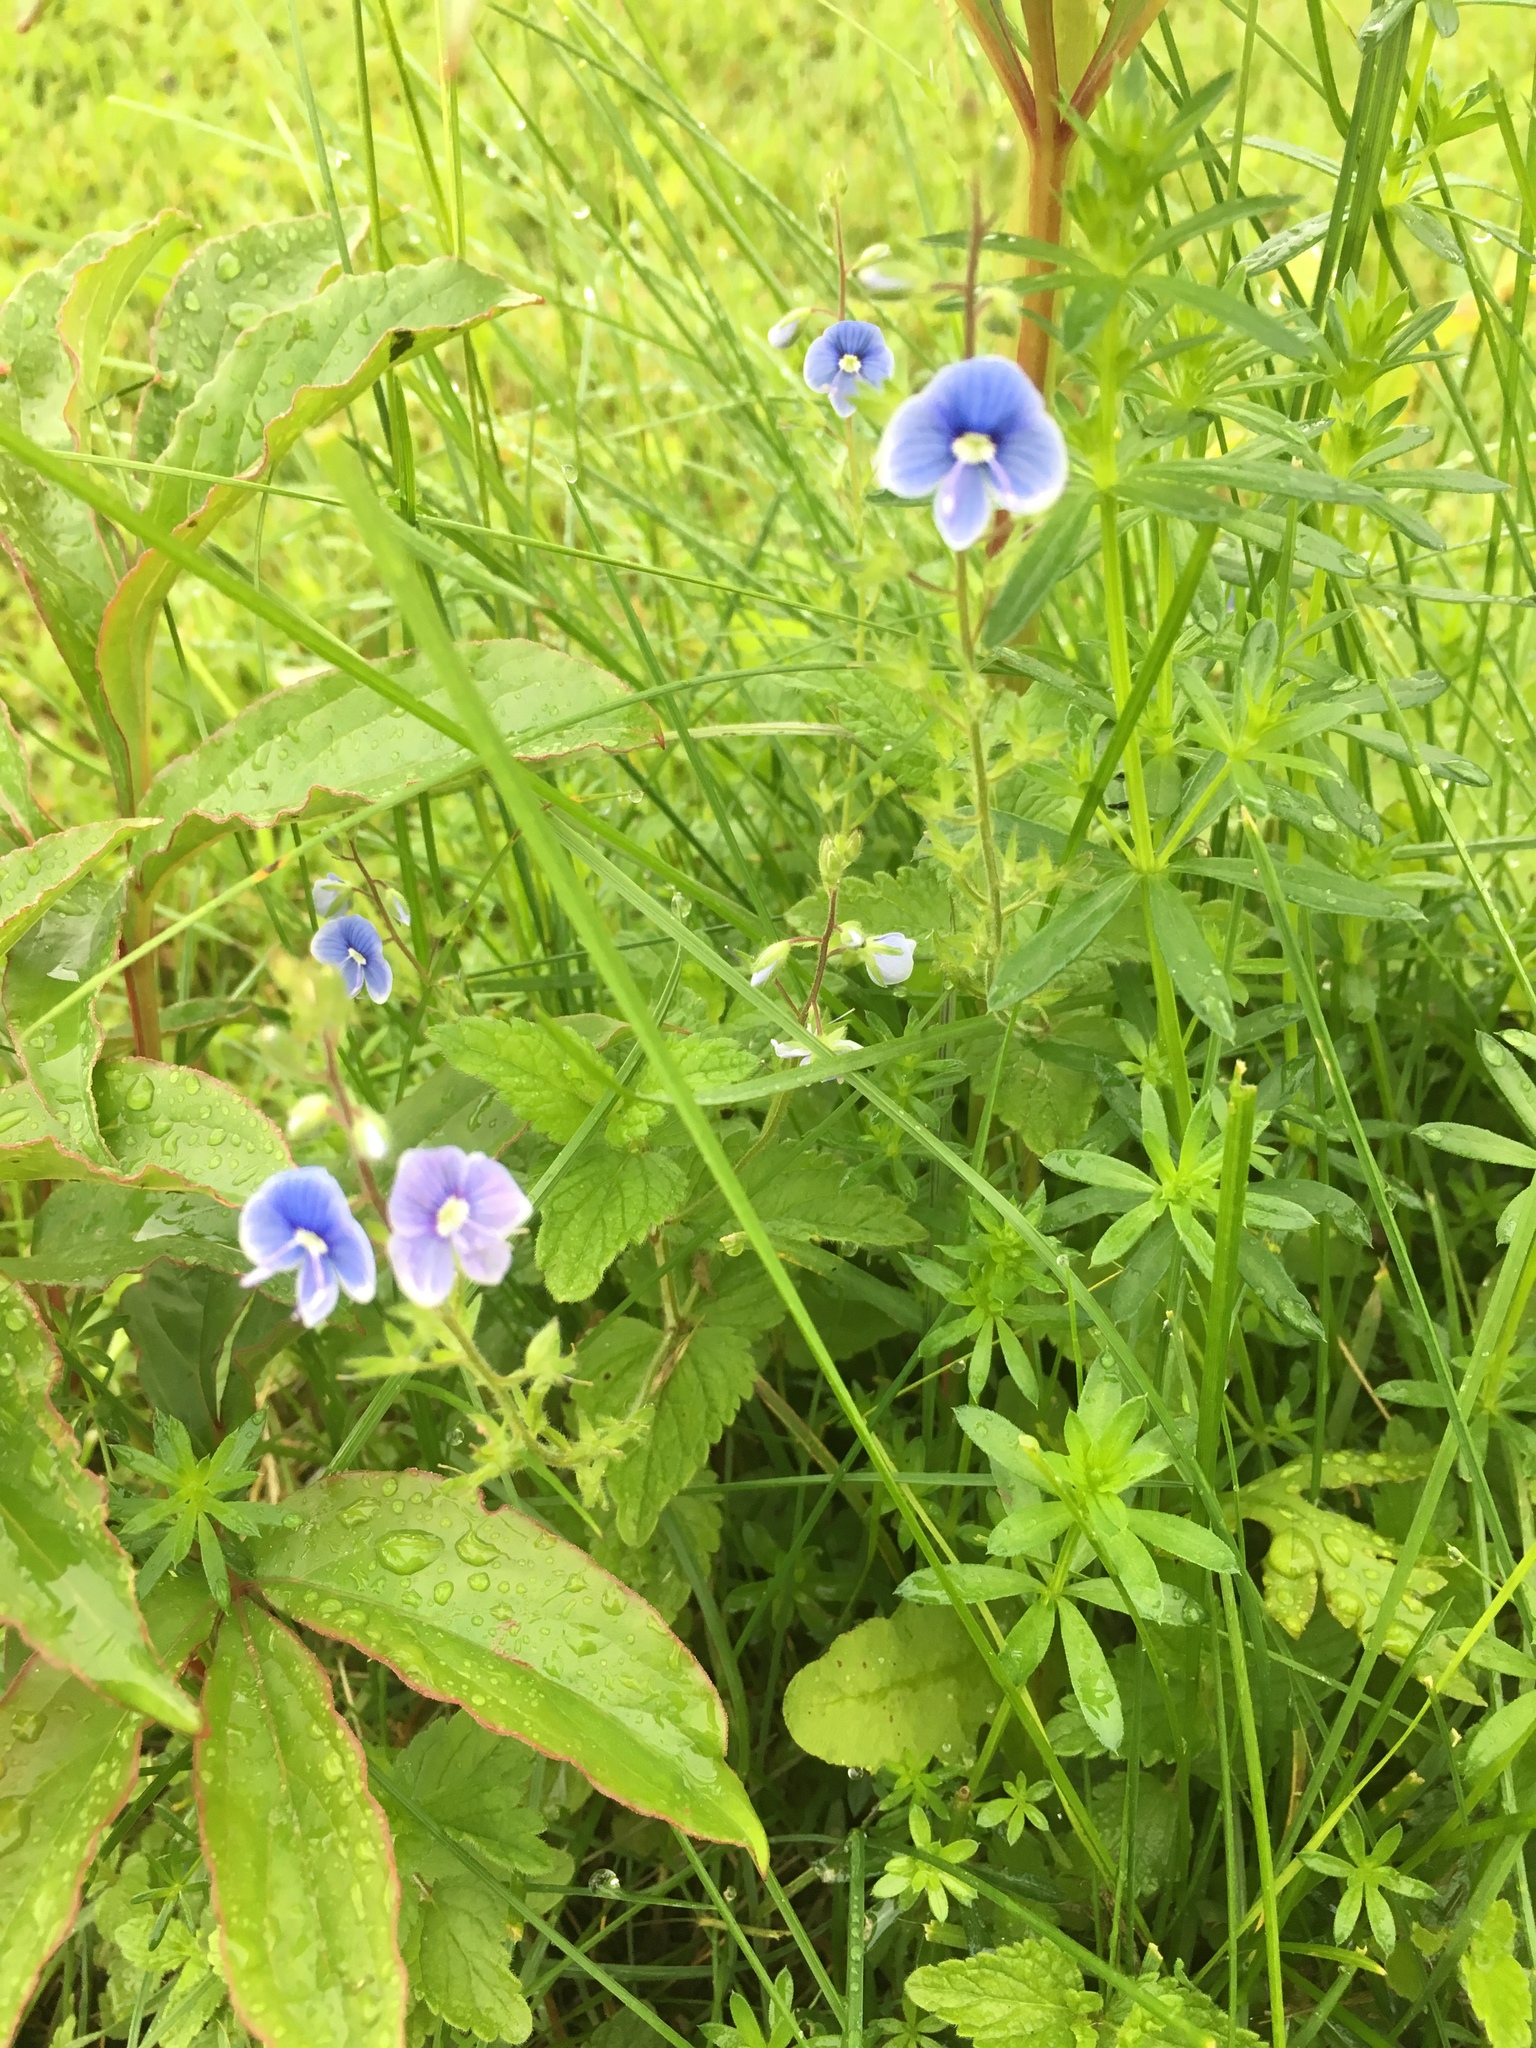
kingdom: Plantae
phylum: Tracheophyta
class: Magnoliopsida
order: Lamiales
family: Plantaginaceae
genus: Veronica
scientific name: Veronica chamaedrys
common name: Germander speedwell
